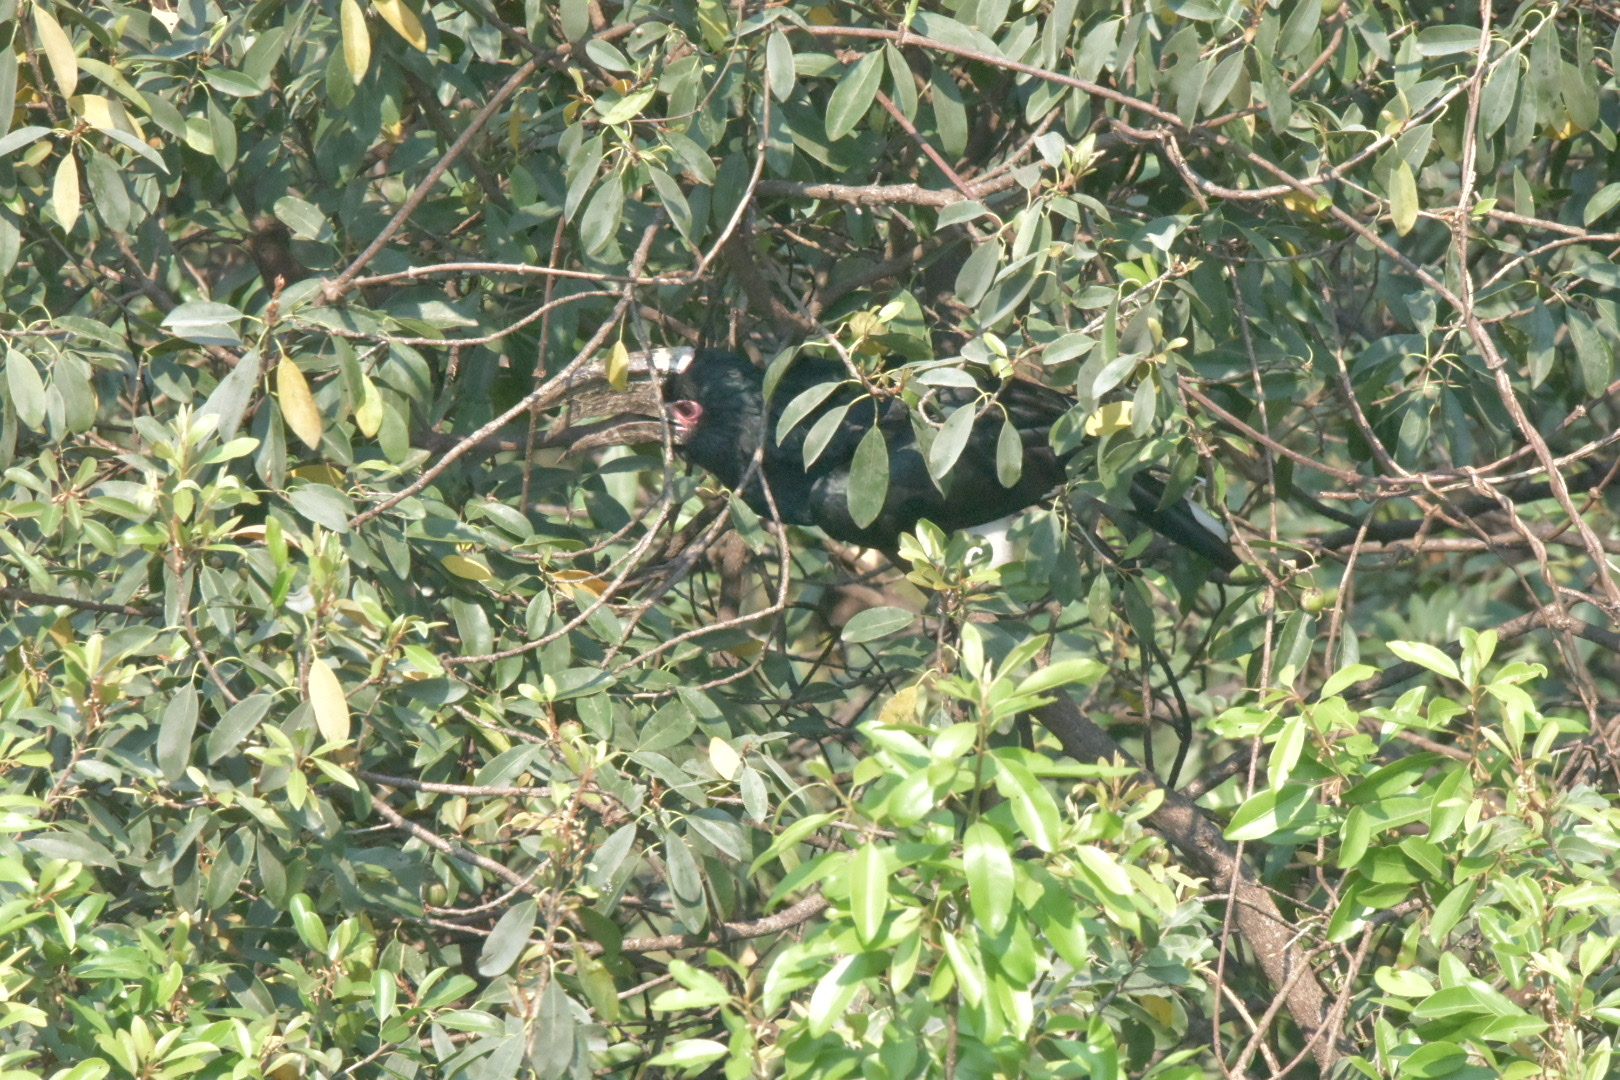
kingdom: Animalia
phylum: Chordata
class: Aves
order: Bucerotiformes
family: Bucerotidae
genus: Bycanistes
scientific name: Bycanistes bucinator
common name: Trumpeter hornbill
